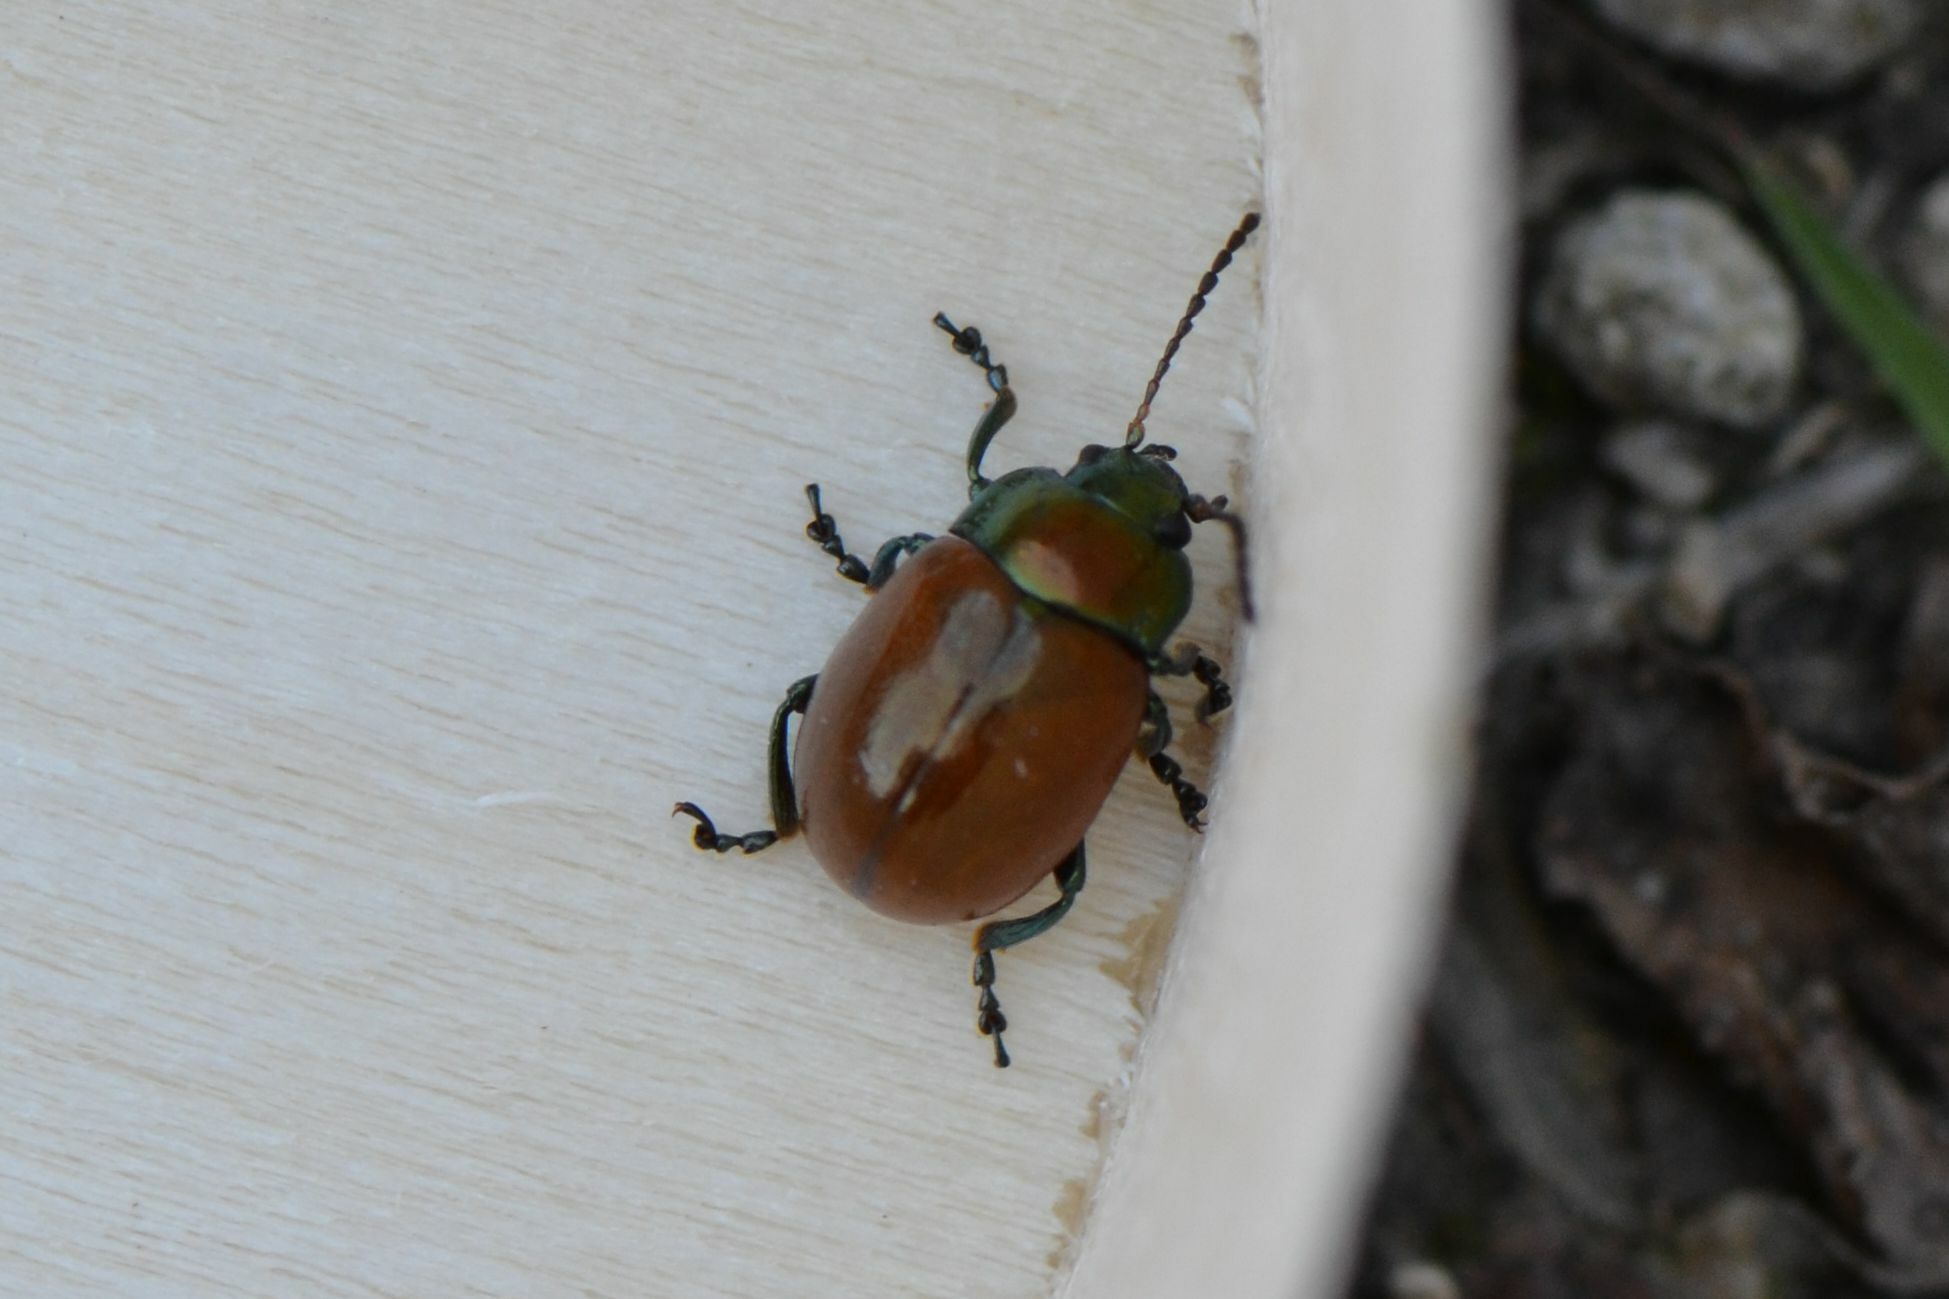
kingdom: Animalia
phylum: Arthropoda
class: Insecta
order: Coleoptera
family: Chrysomelidae
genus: Chrysomela
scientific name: Chrysomela polita
